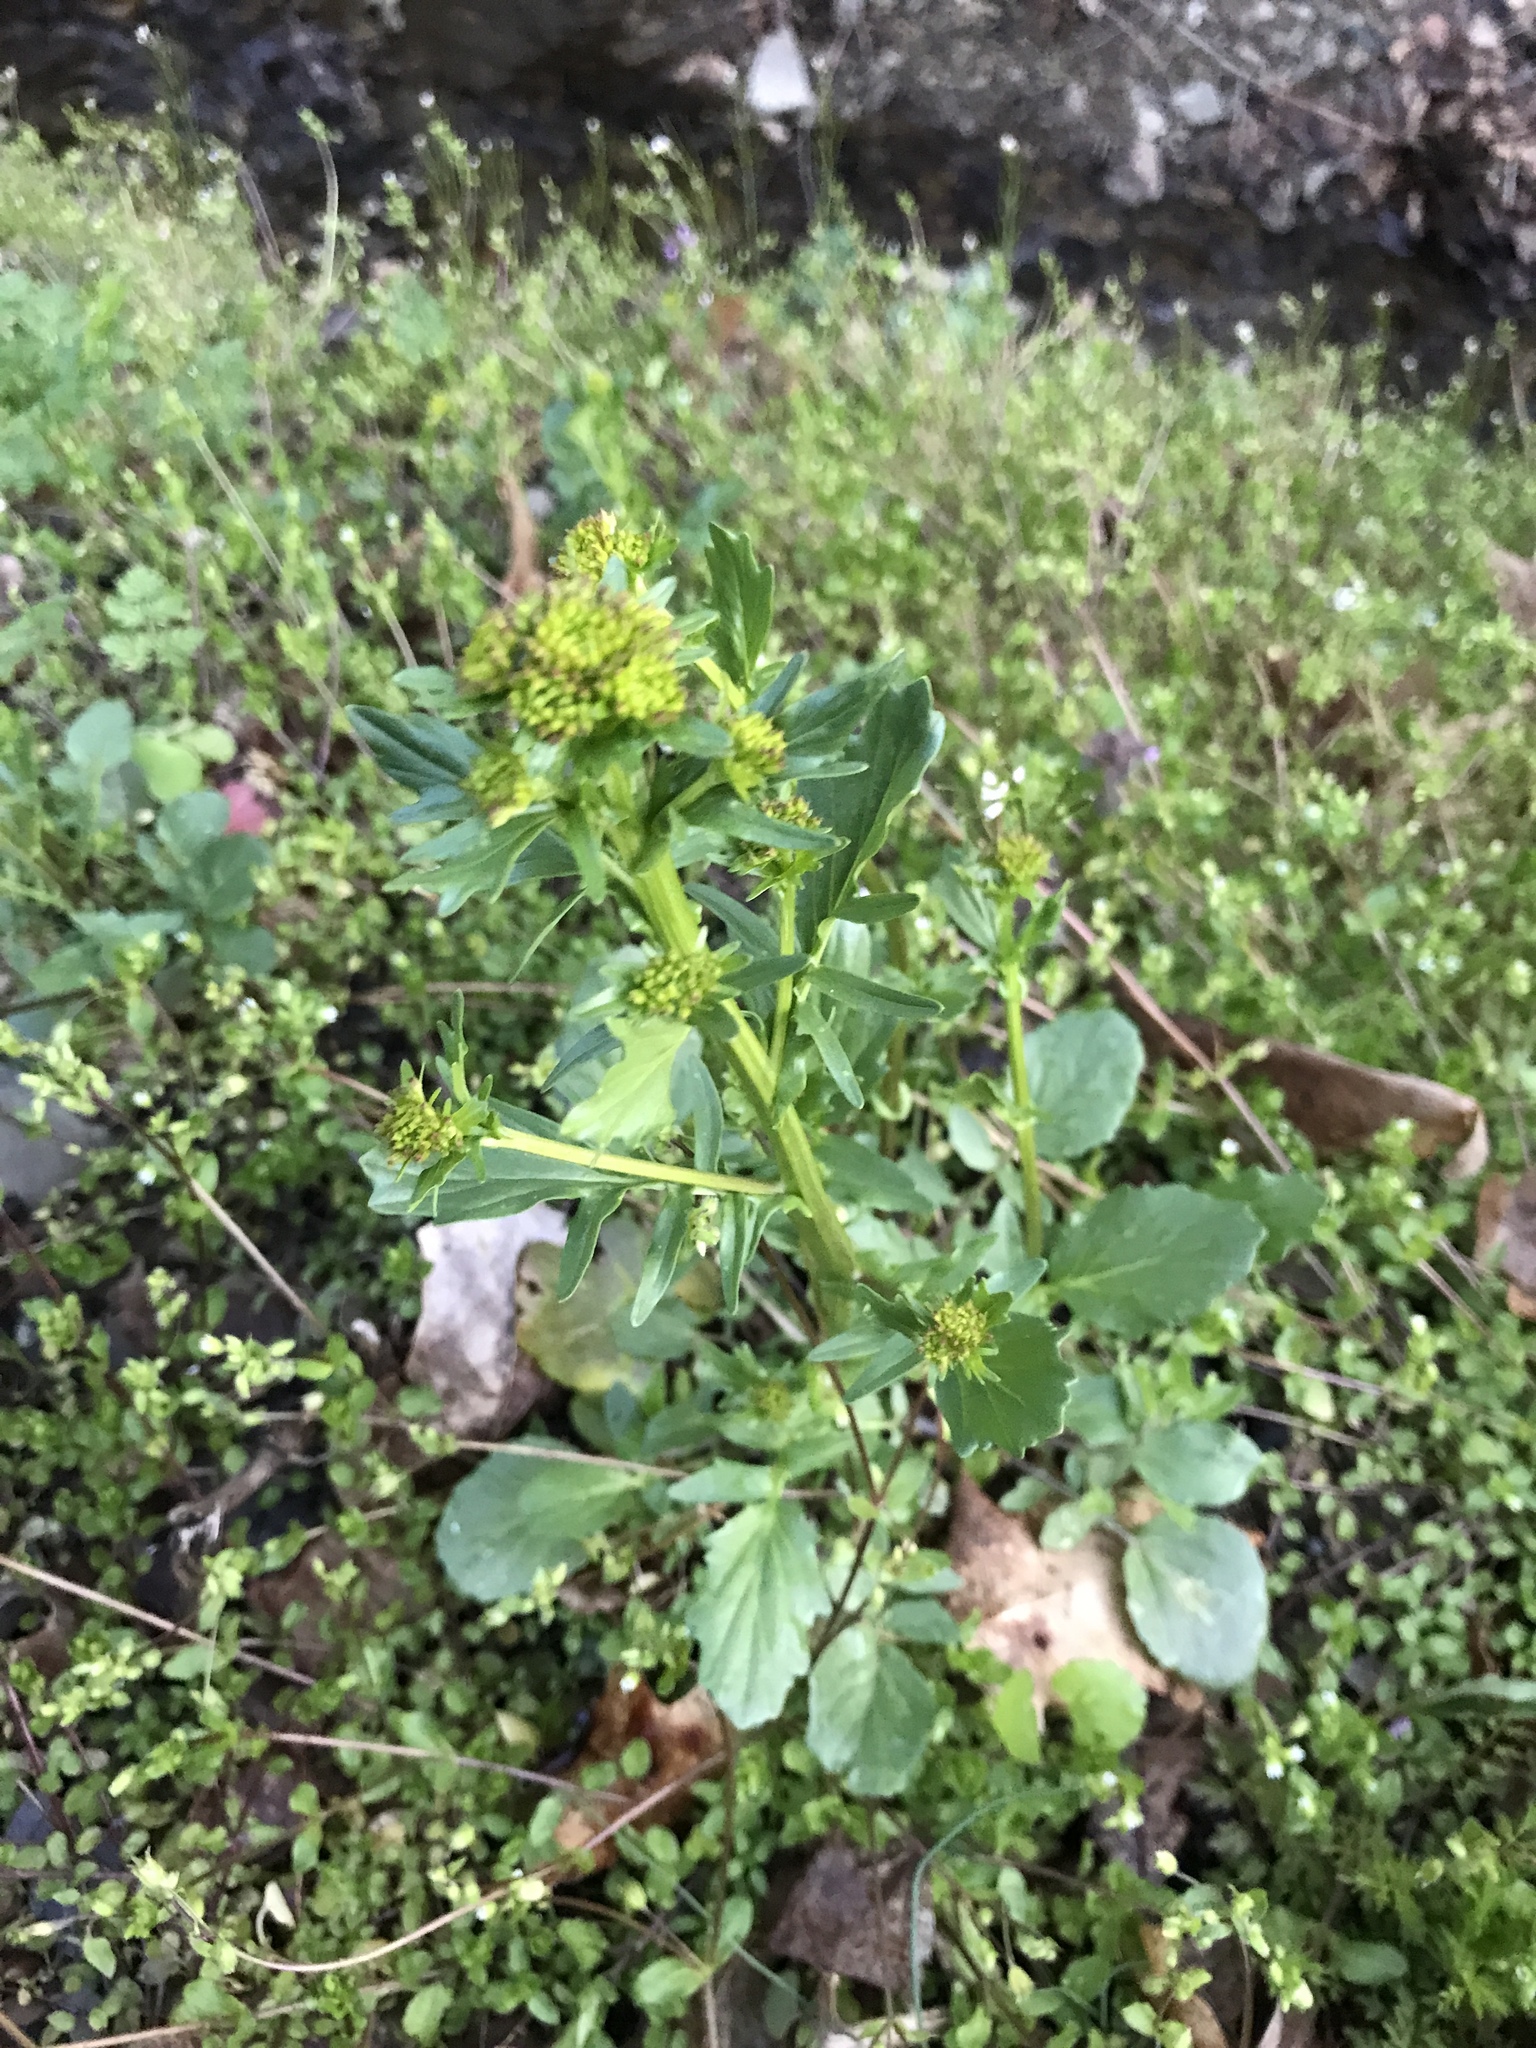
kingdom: Plantae
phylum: Tracheophyta
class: Magnoliopsida
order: Brassicales
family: Brassicaceae
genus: Barbarea
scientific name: Barbarea vulgaris
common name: Cressy-greens
